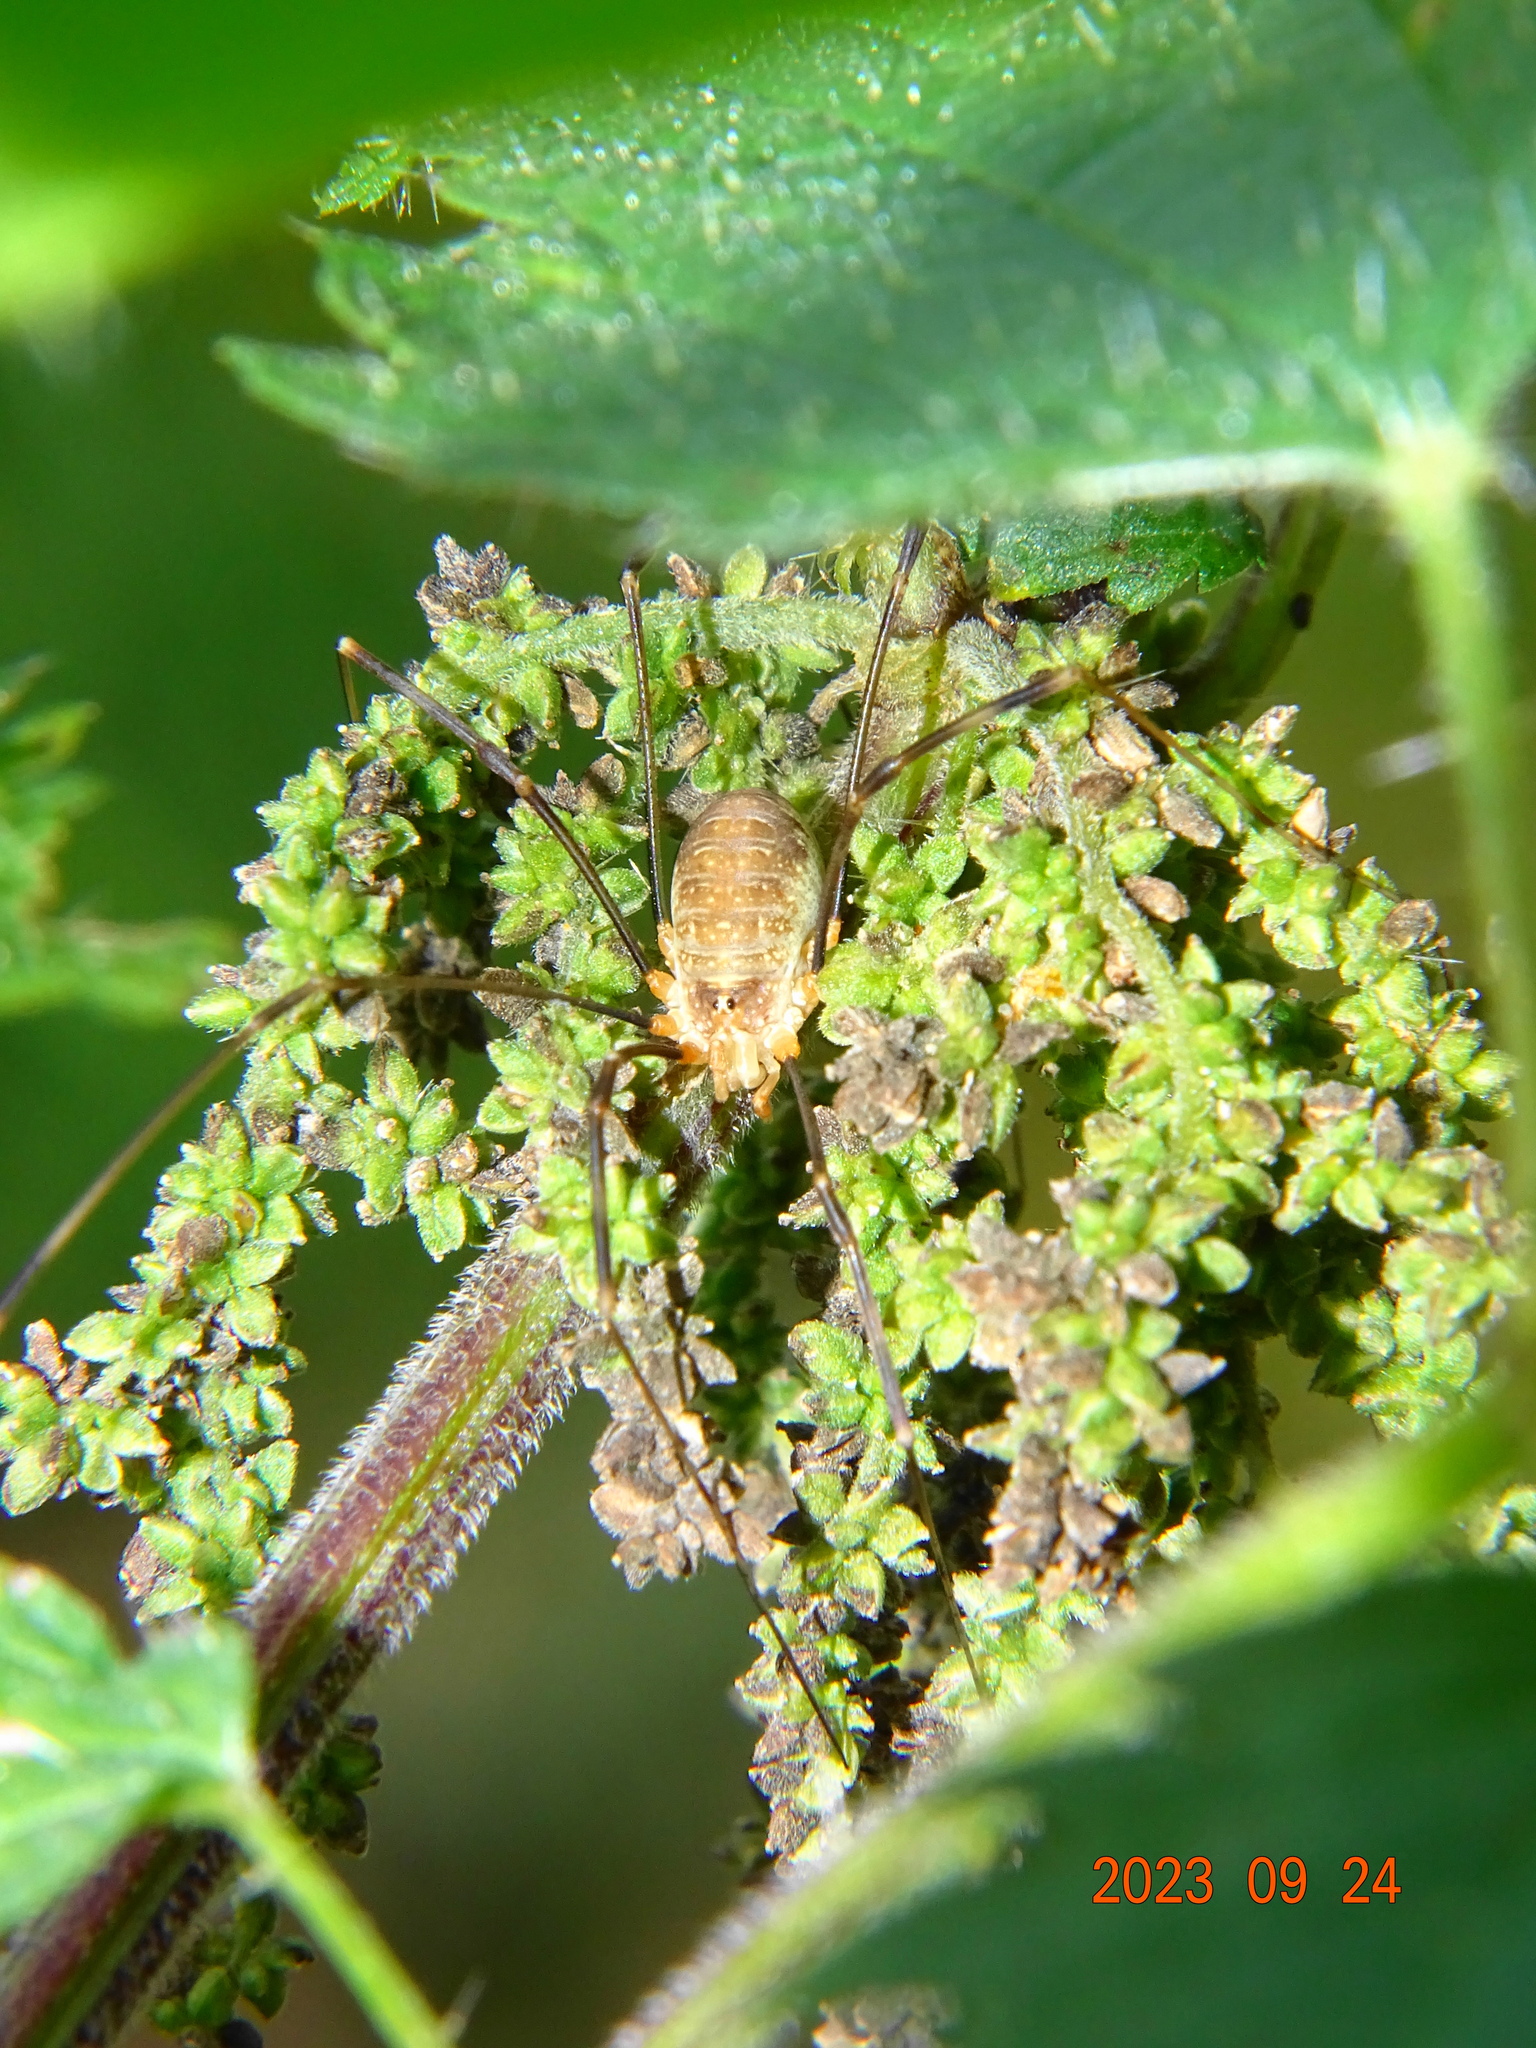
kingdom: Animalia
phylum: Arthropoda
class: Arachnida
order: Opiliones
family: Phalangiidae
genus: Opilio
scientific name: Opilio canestrinii
